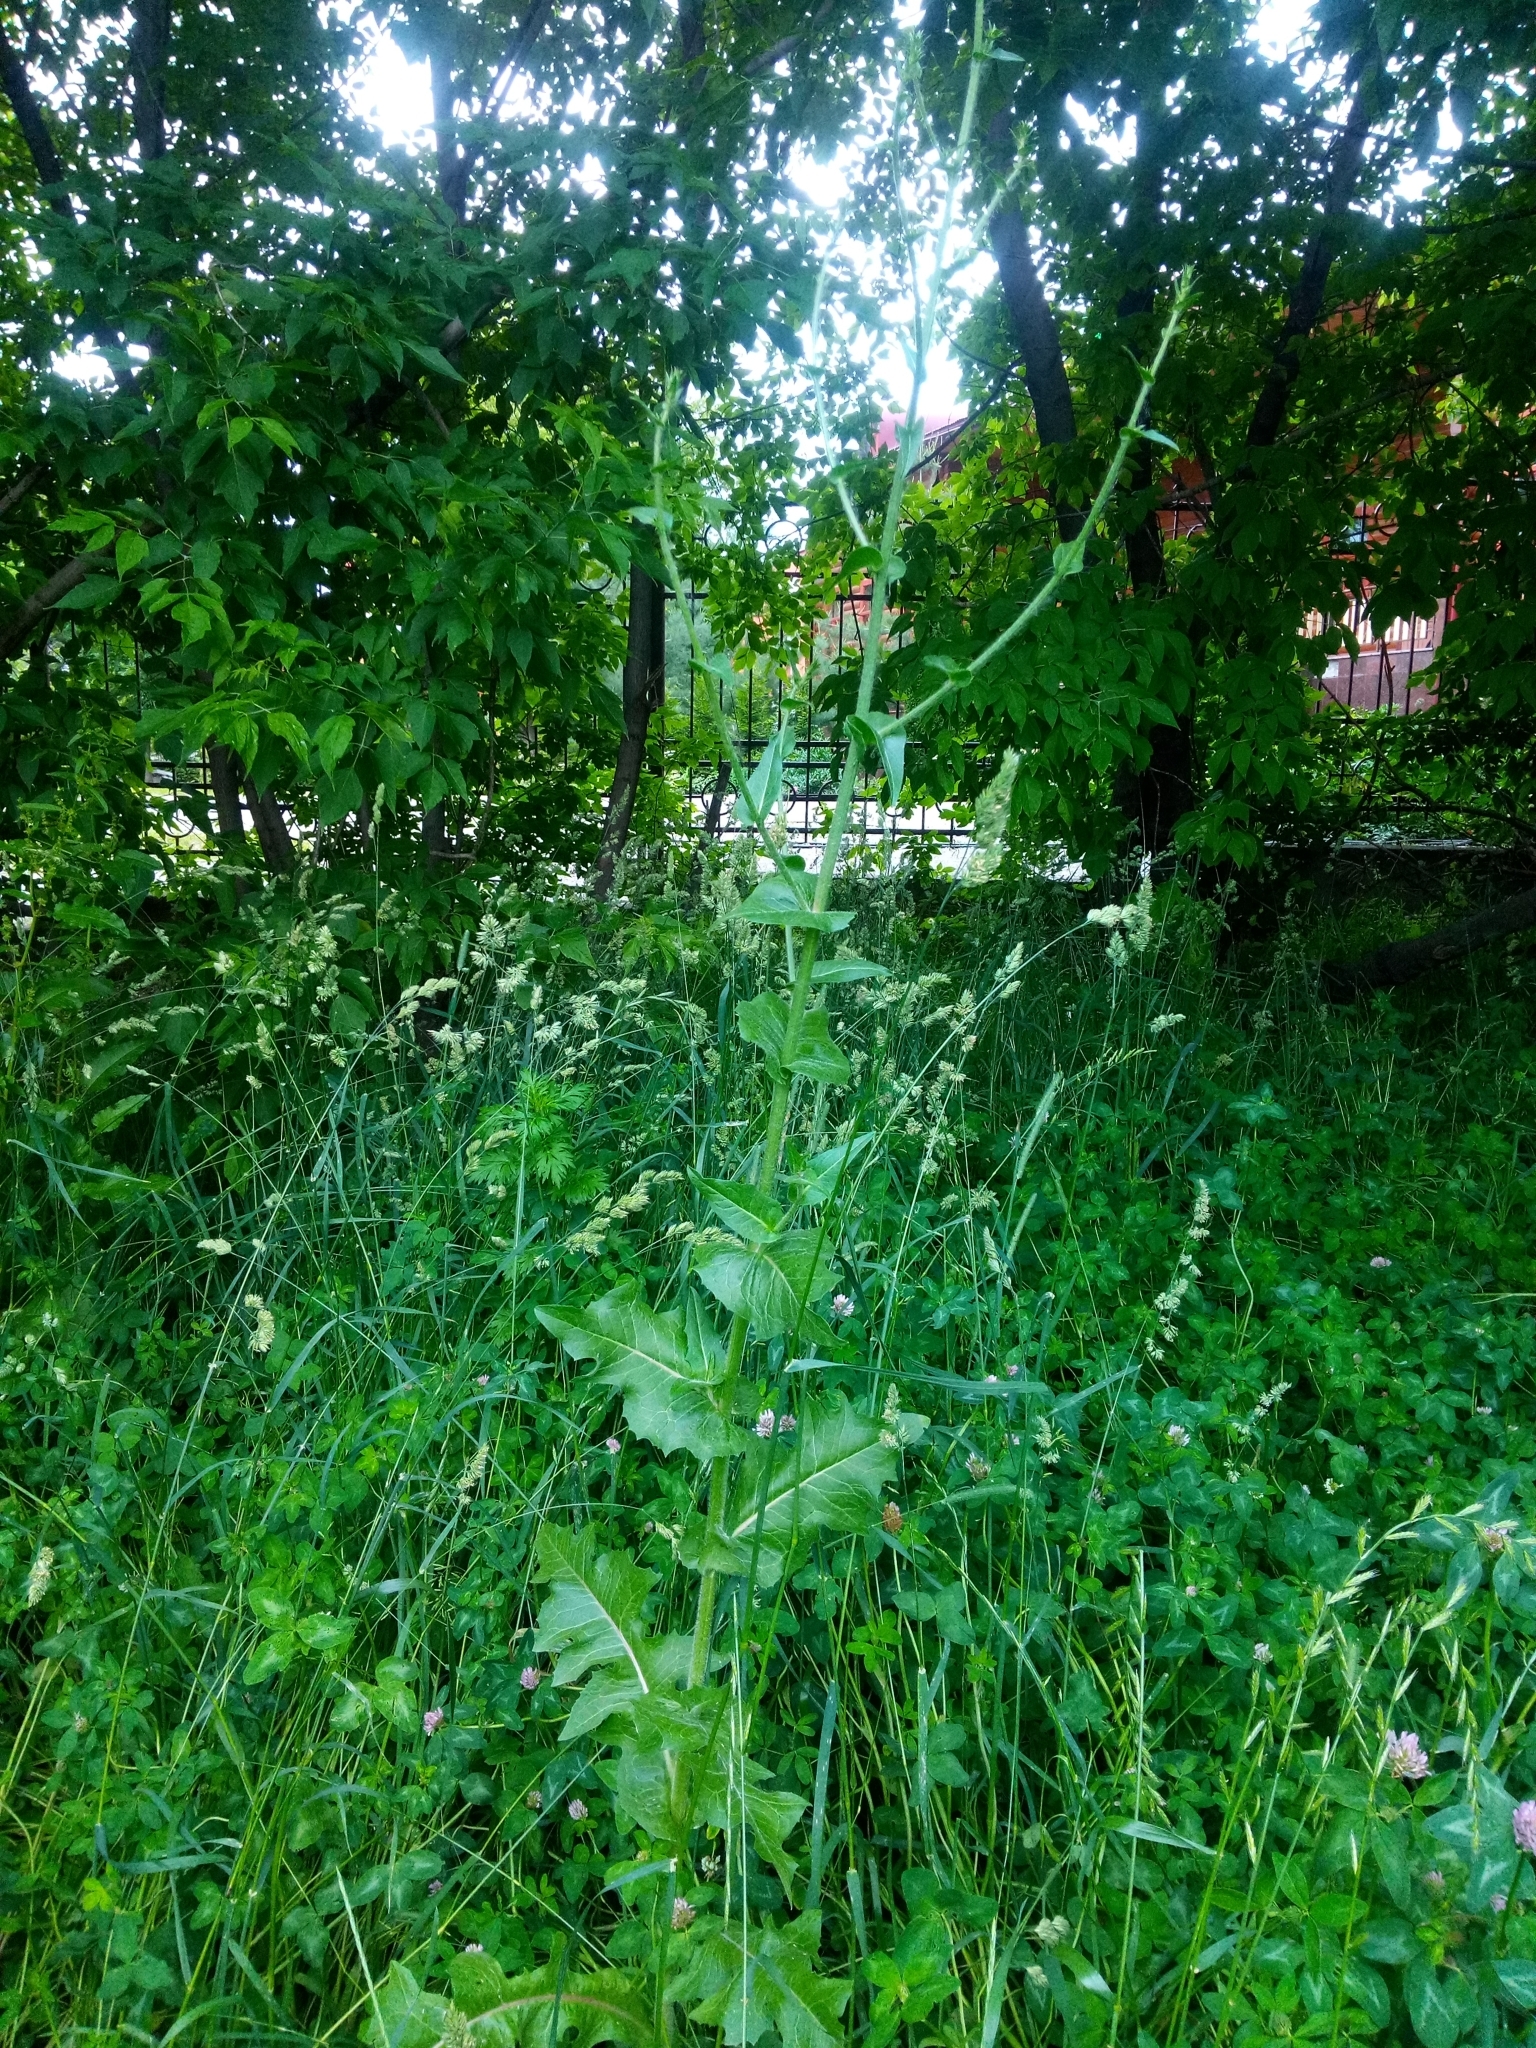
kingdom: Plantae
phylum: Tracheophyta
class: Magnoliopsida
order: Asterales
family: Asteraceae
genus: Cichorium
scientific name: Cichorium intybus
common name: Chicory
